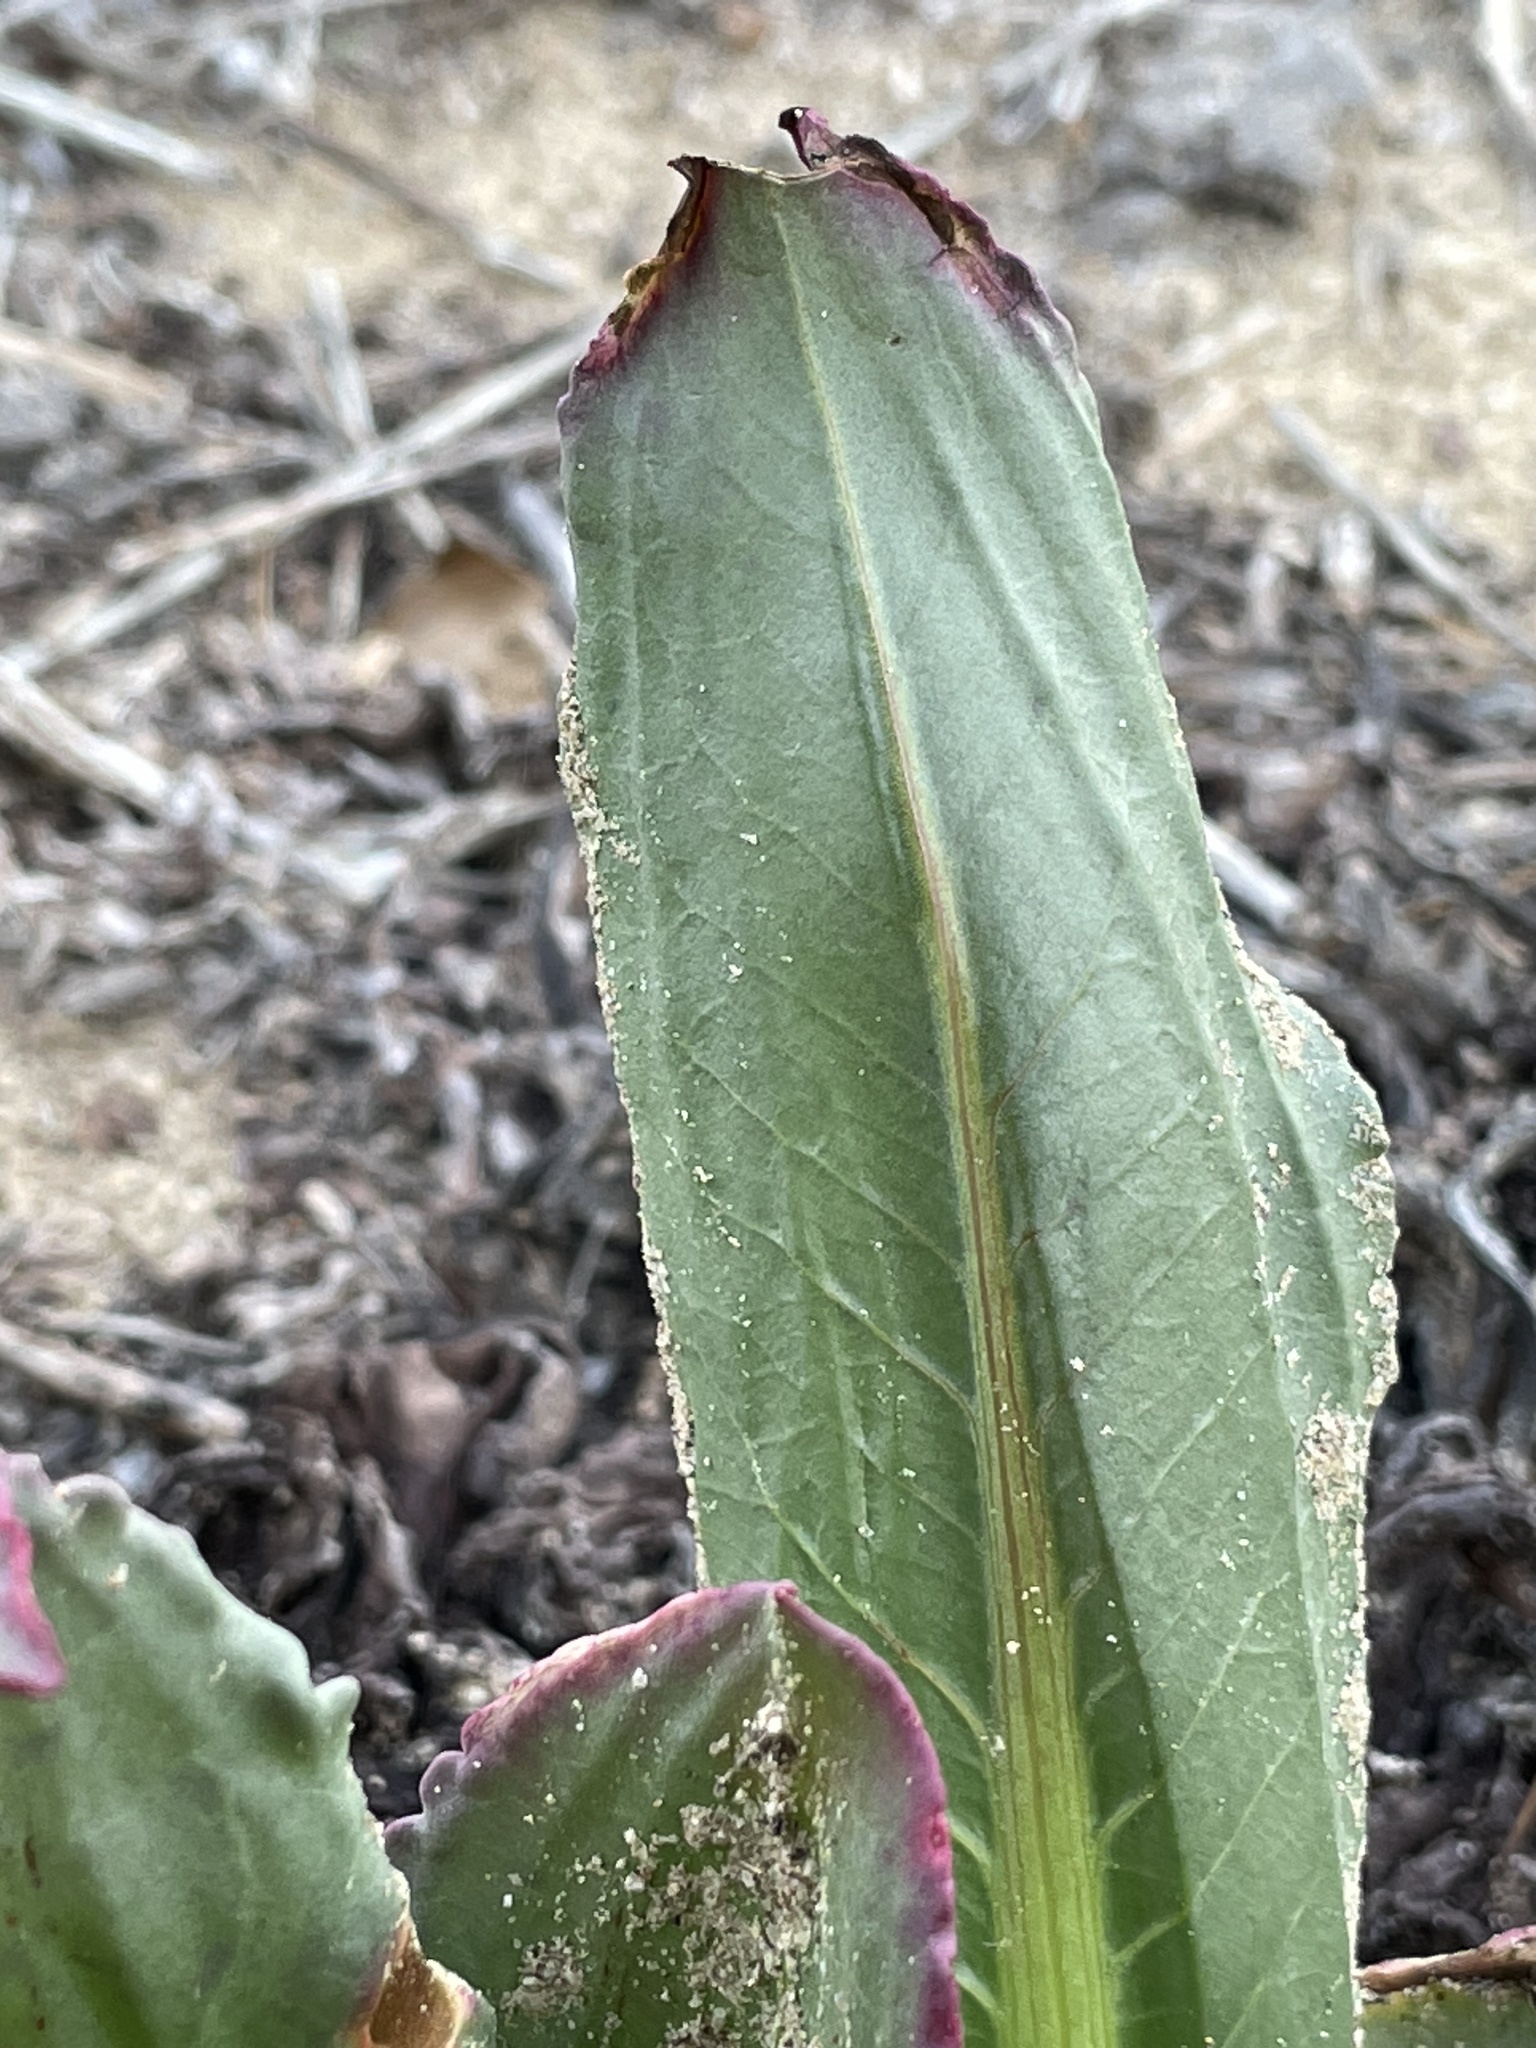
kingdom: Plantae
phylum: Tracheophyta
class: Magnoliopsida
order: Caryophyllales
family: Polygonaceae
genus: Rumex
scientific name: Rumex hymenosepalus
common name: Ganagra
